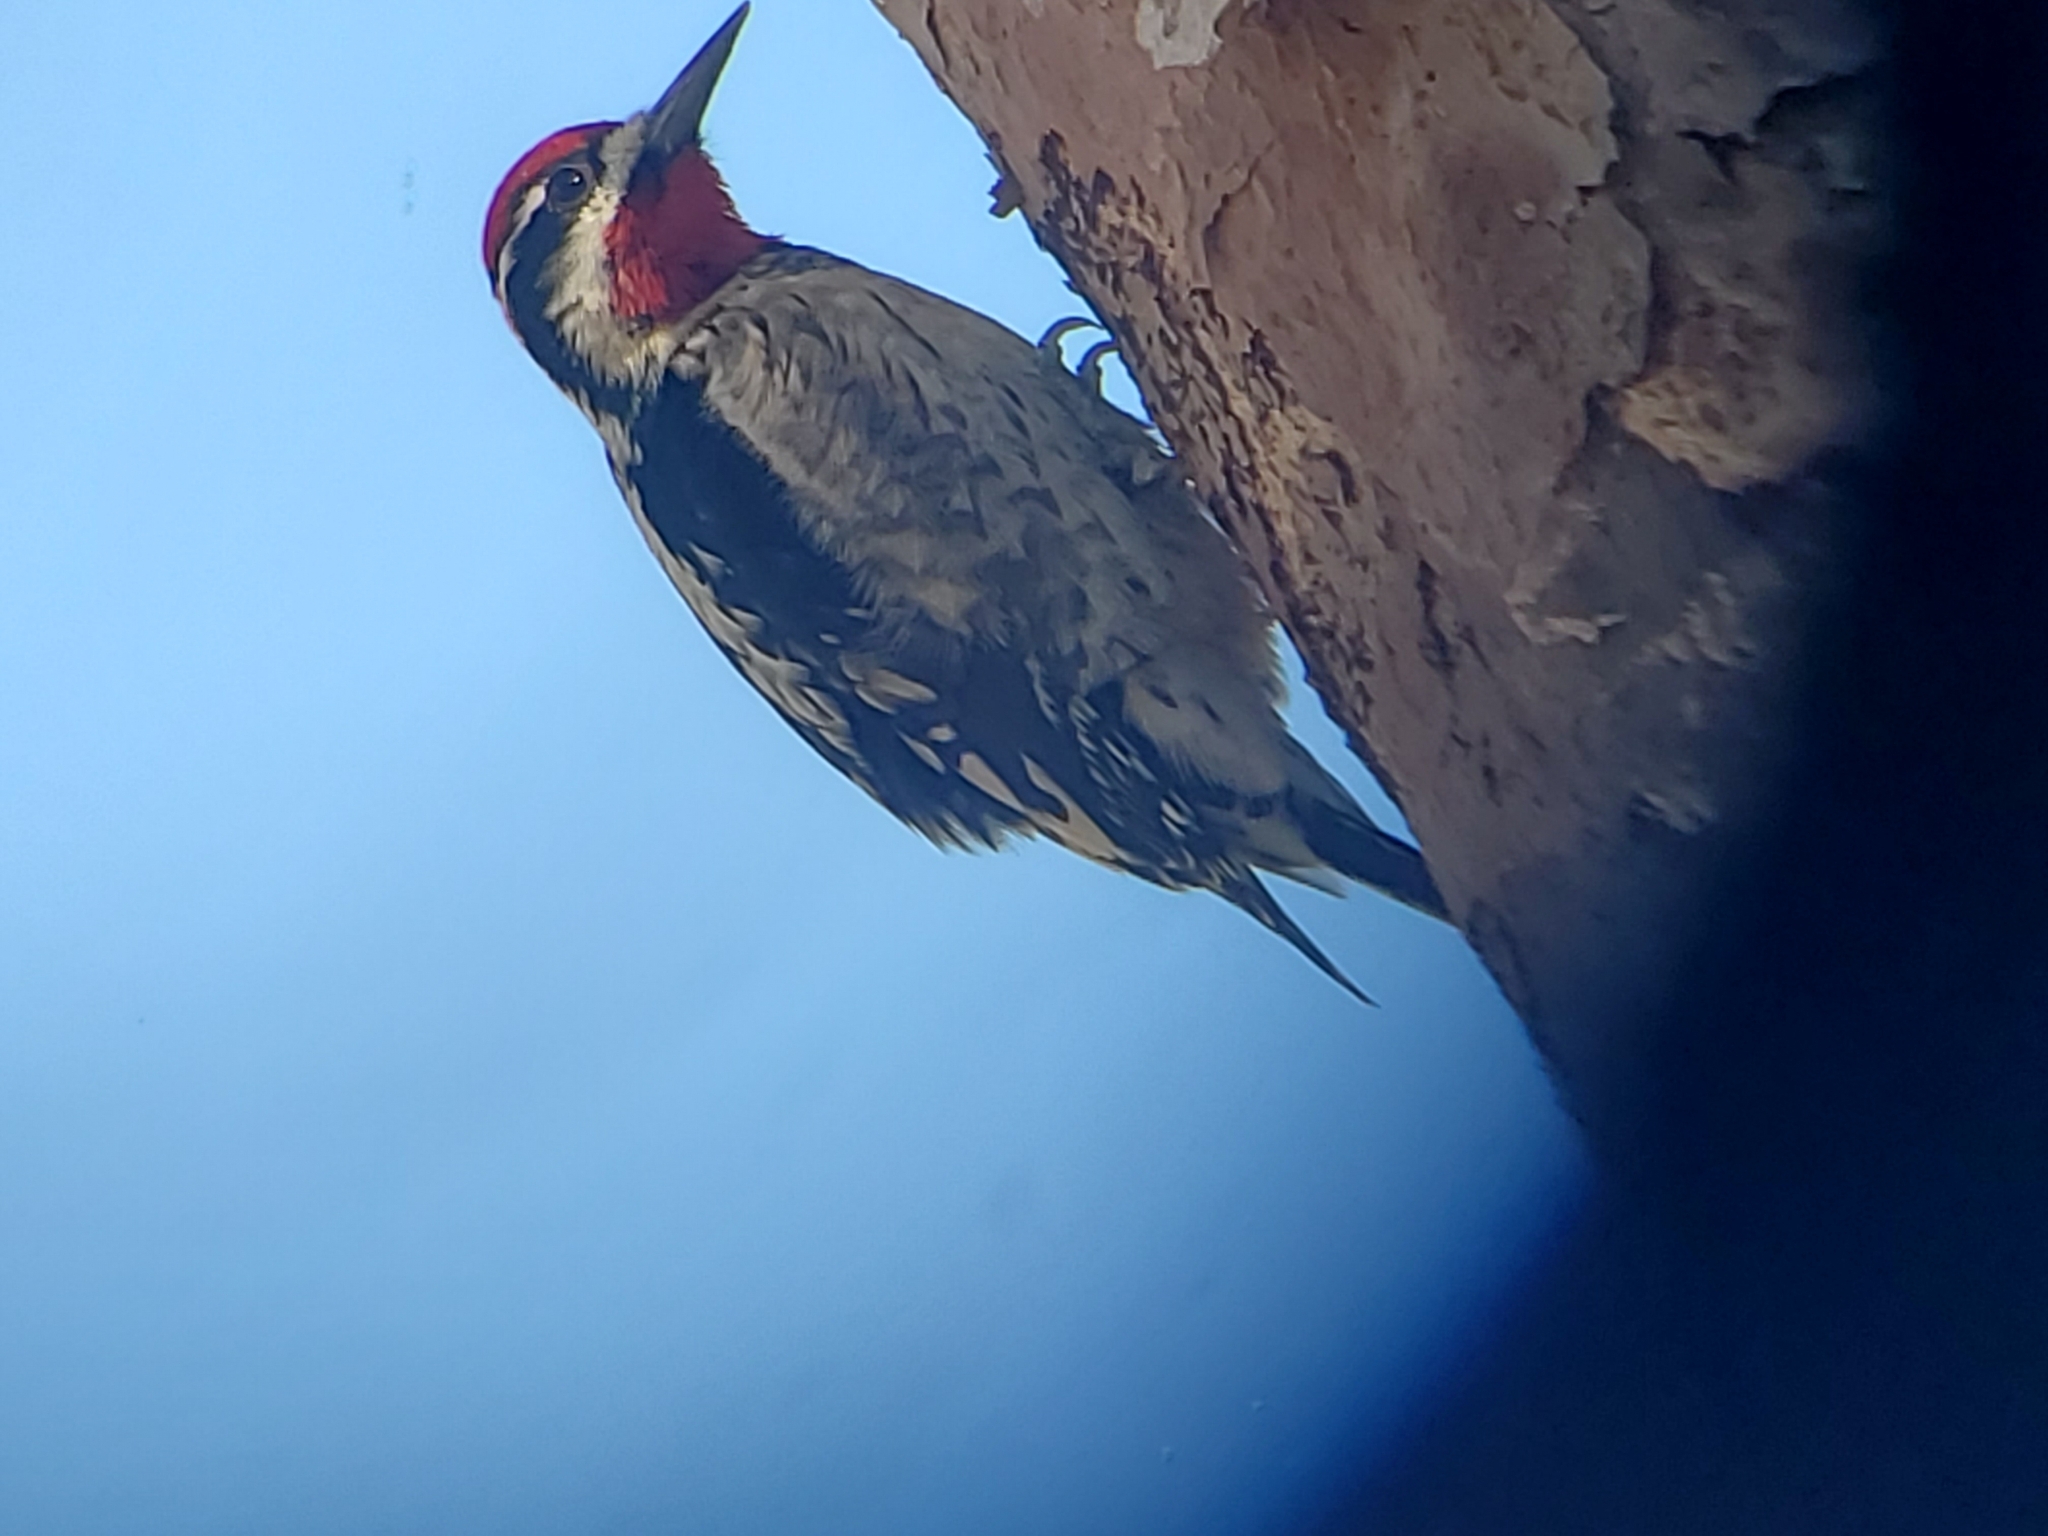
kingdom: Animalia
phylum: Chordata
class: Aves
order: Piciformes
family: Picidae
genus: Sphyrapicus
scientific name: Sphyrapicus nuchalis
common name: Red-naped sapsucker
